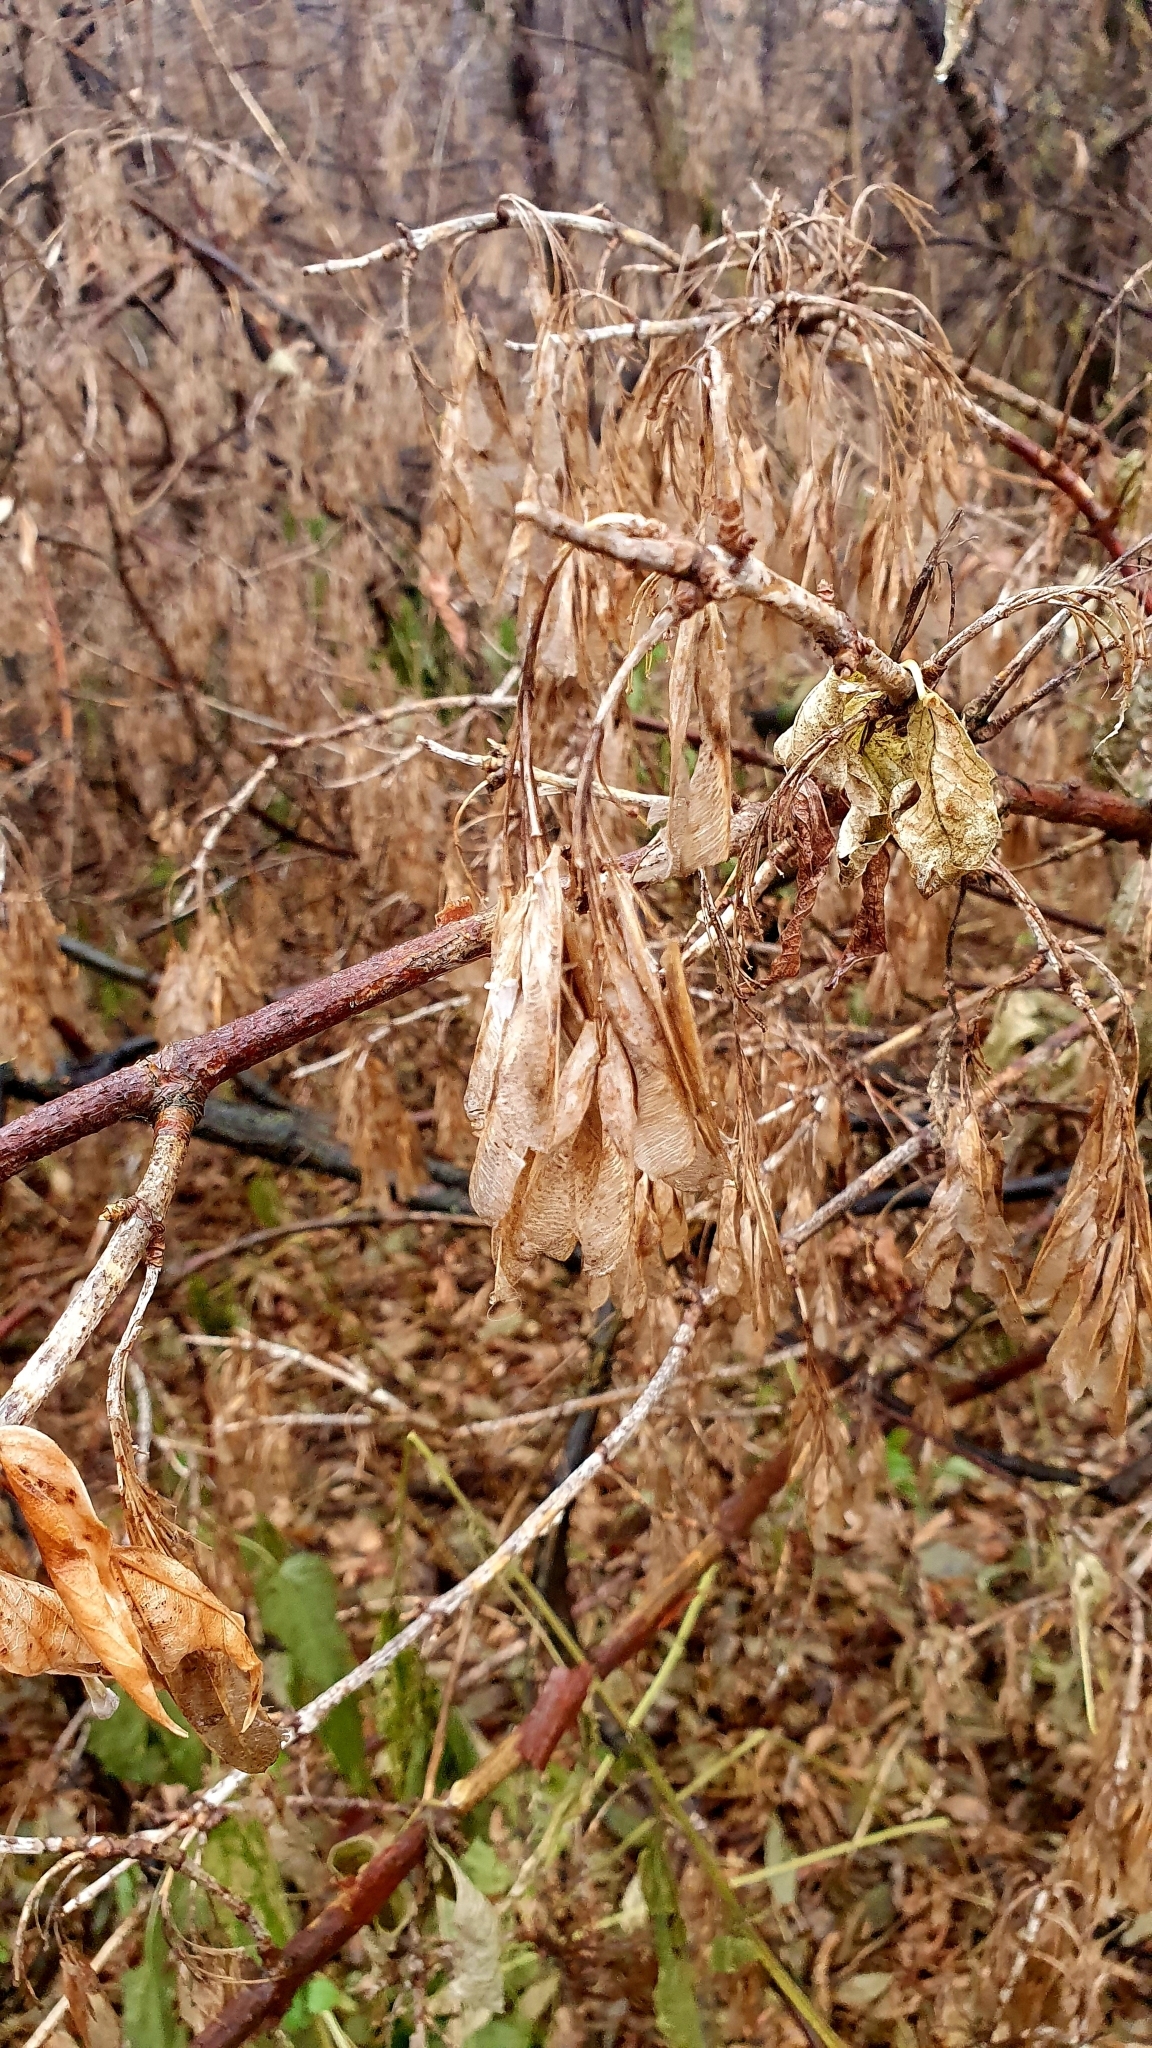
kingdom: Plantae
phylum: Tracheophyta
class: Magnoliopsida
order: Sapindales
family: Sapindaceae
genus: Acer
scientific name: Acer negundo
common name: Ashleaf maple
